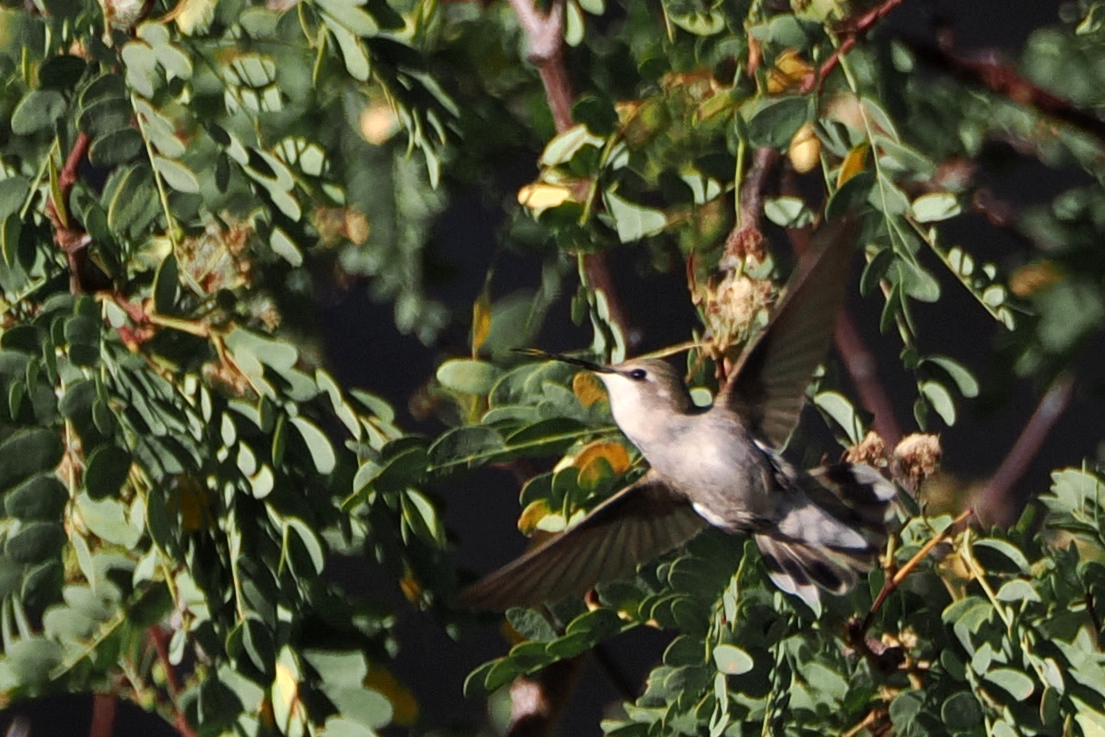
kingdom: Animalia
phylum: Chordata
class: Aves
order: Apodiformes
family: Trochilidae
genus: Calypte
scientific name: Calypte costae
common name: Costa's hummingbird
